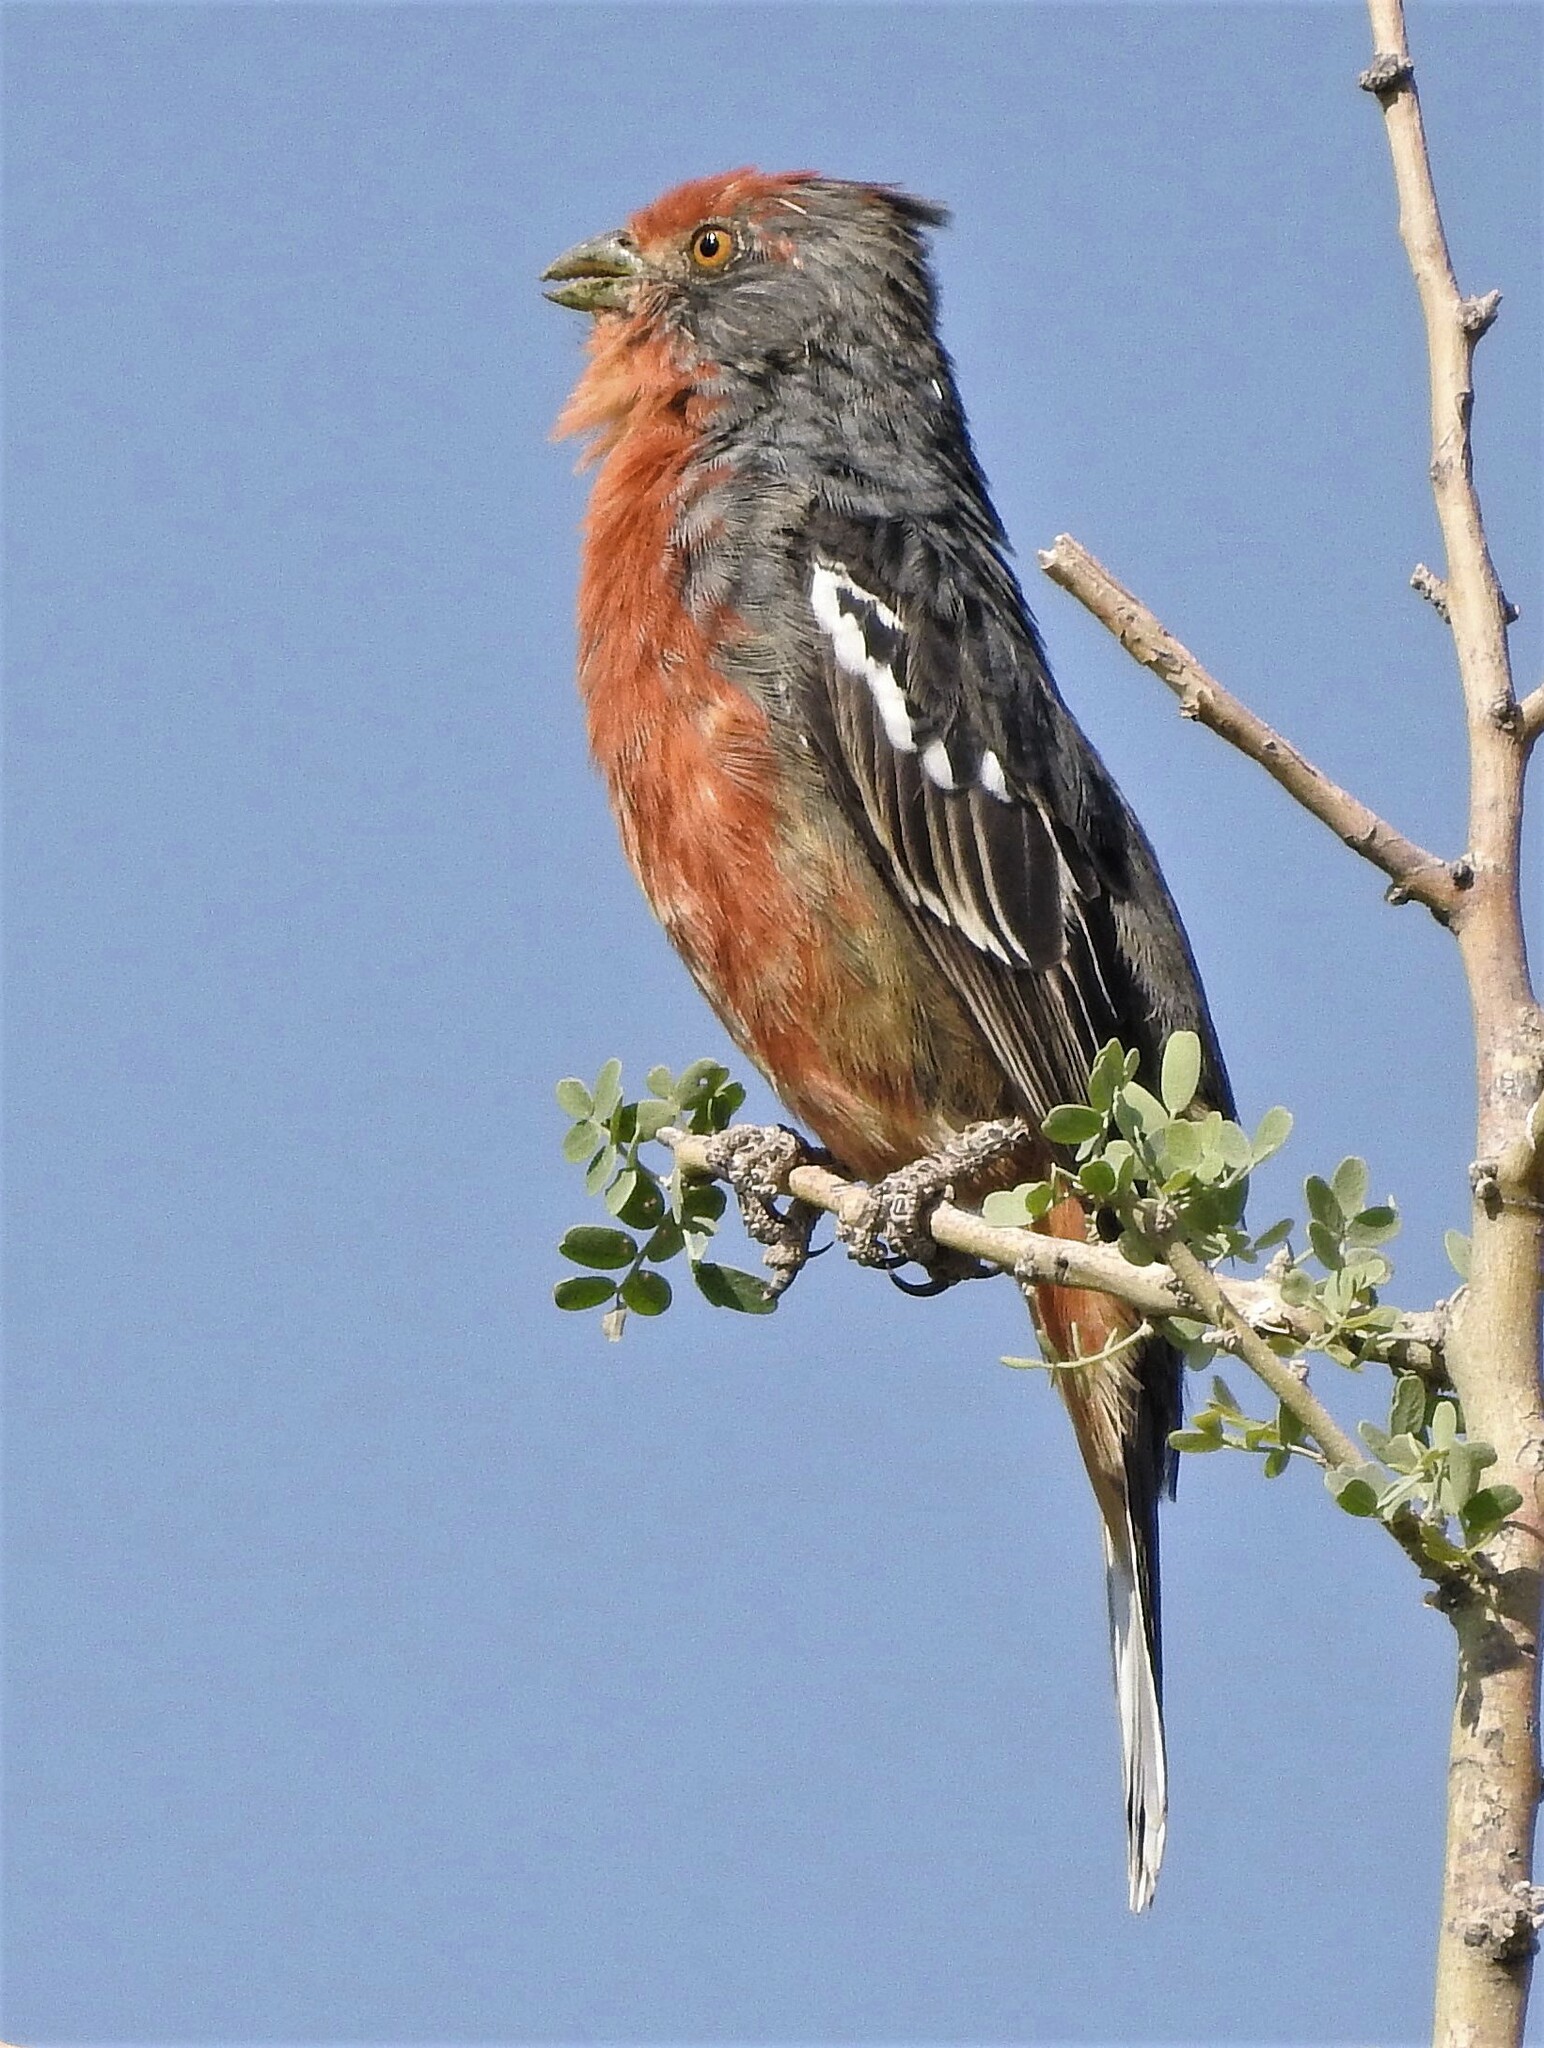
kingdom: Animalia
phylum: Chordata
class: Aves
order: Passeriformes
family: Cotingidae
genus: Phytotoma
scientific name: Phytotoma rutila
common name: White-tipped plantcutter
